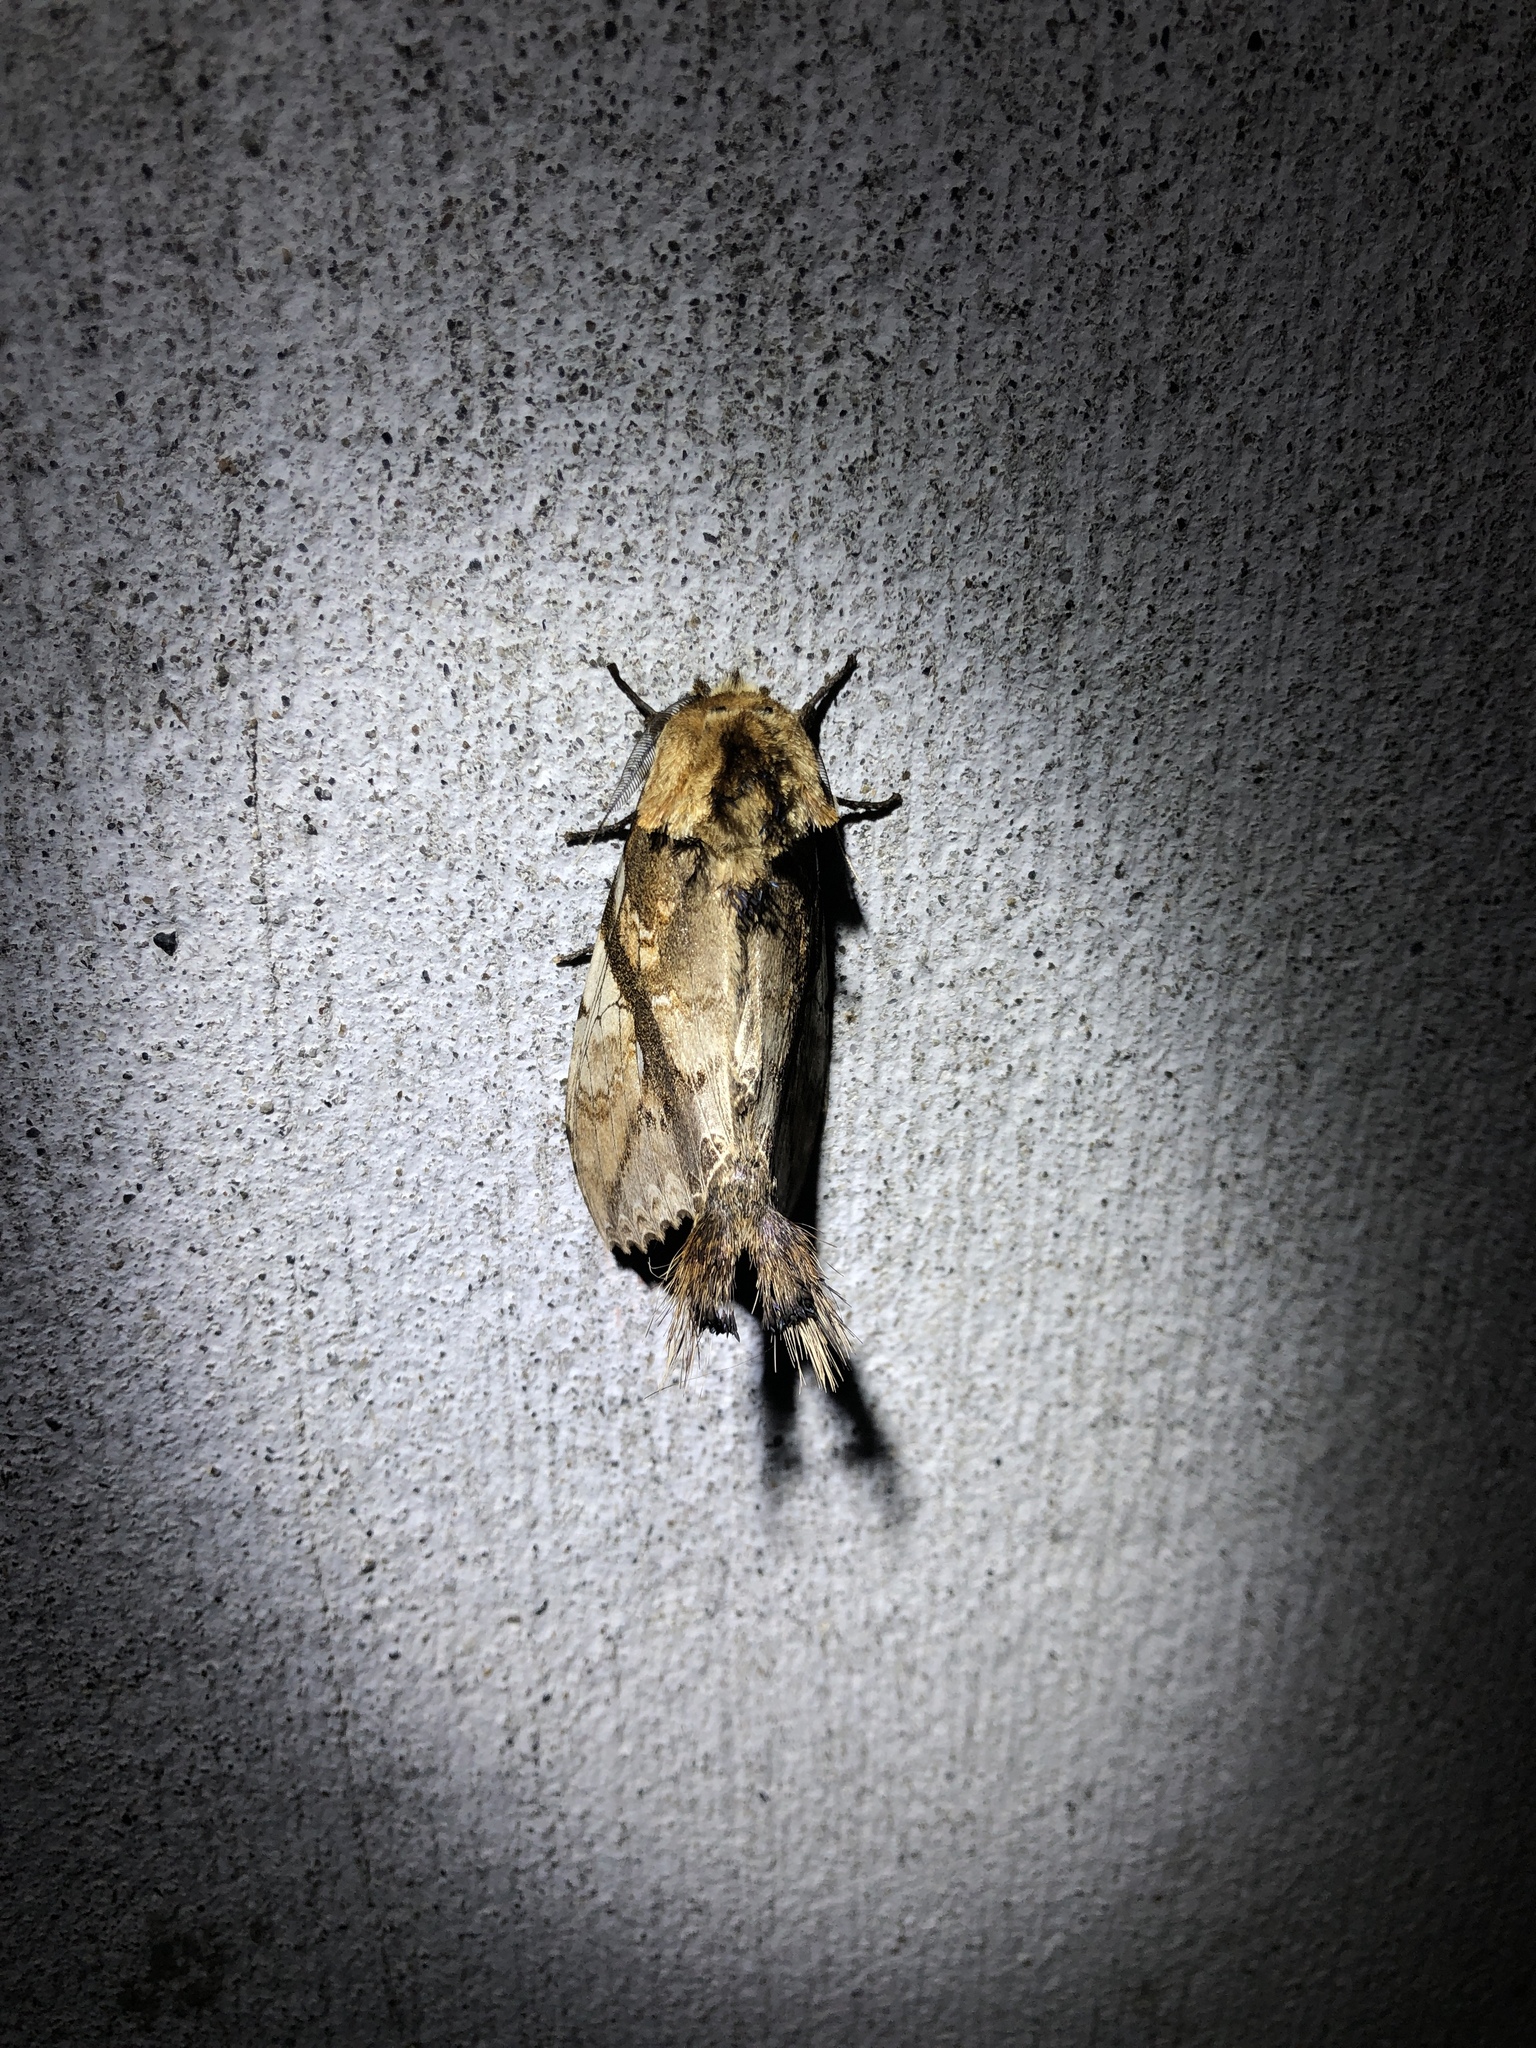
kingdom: Animalia
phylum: Arthropoda
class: Insecta
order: Lepidoptera
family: Notodontidae
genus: Dudusa
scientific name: Dudusa synopla
